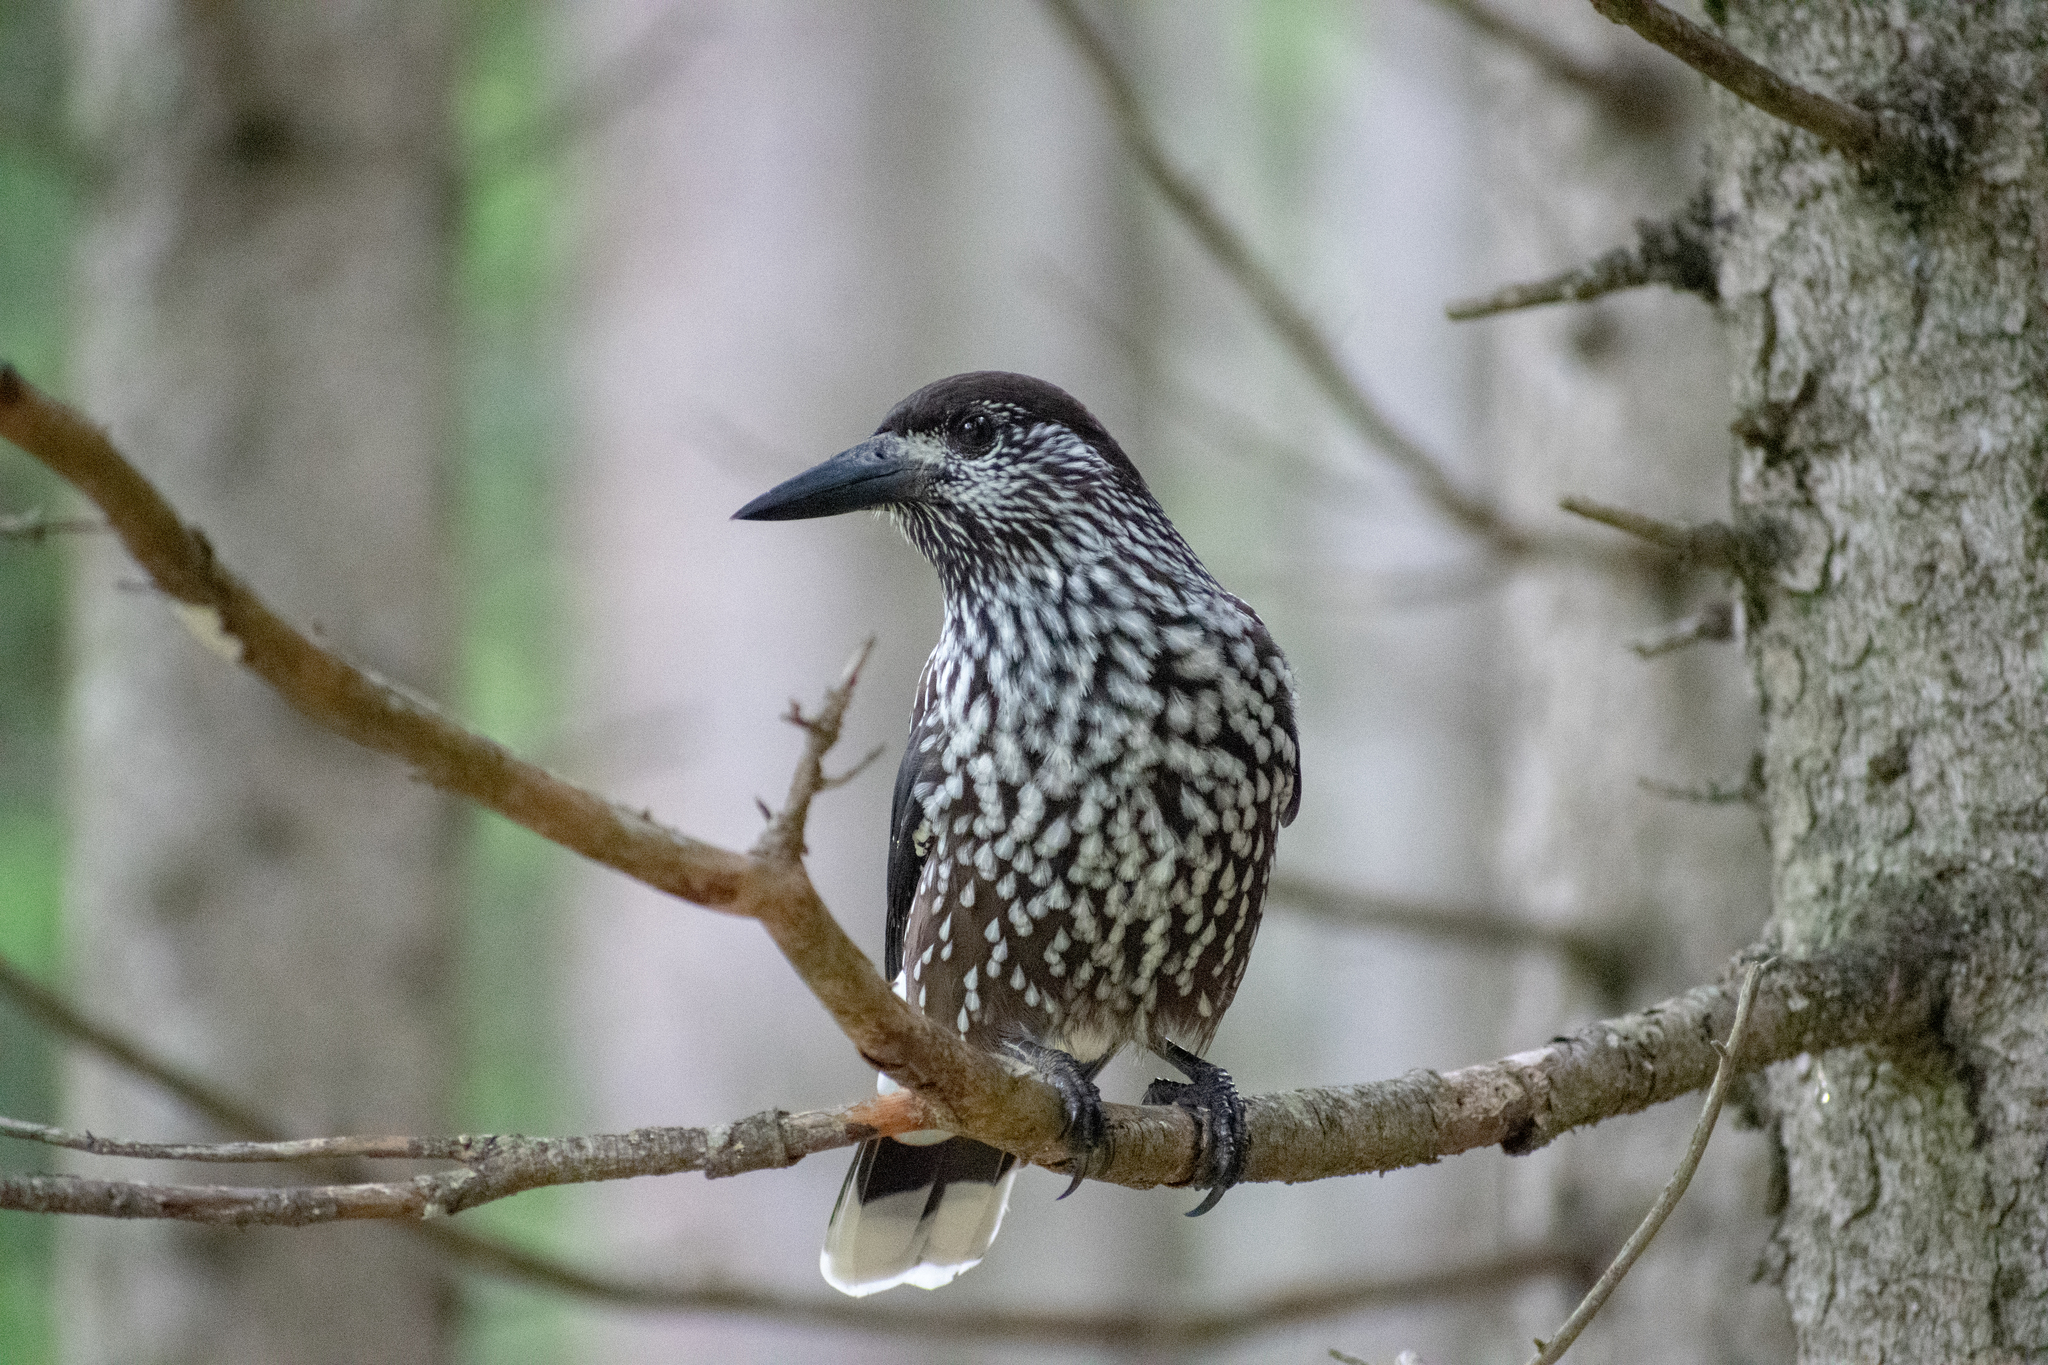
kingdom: Animalia
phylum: Chordata
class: Aves
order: Passeriformes
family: Corvidae
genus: Nucifraga
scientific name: Nucifraga caryocatactes
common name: Spotted nutcracker
